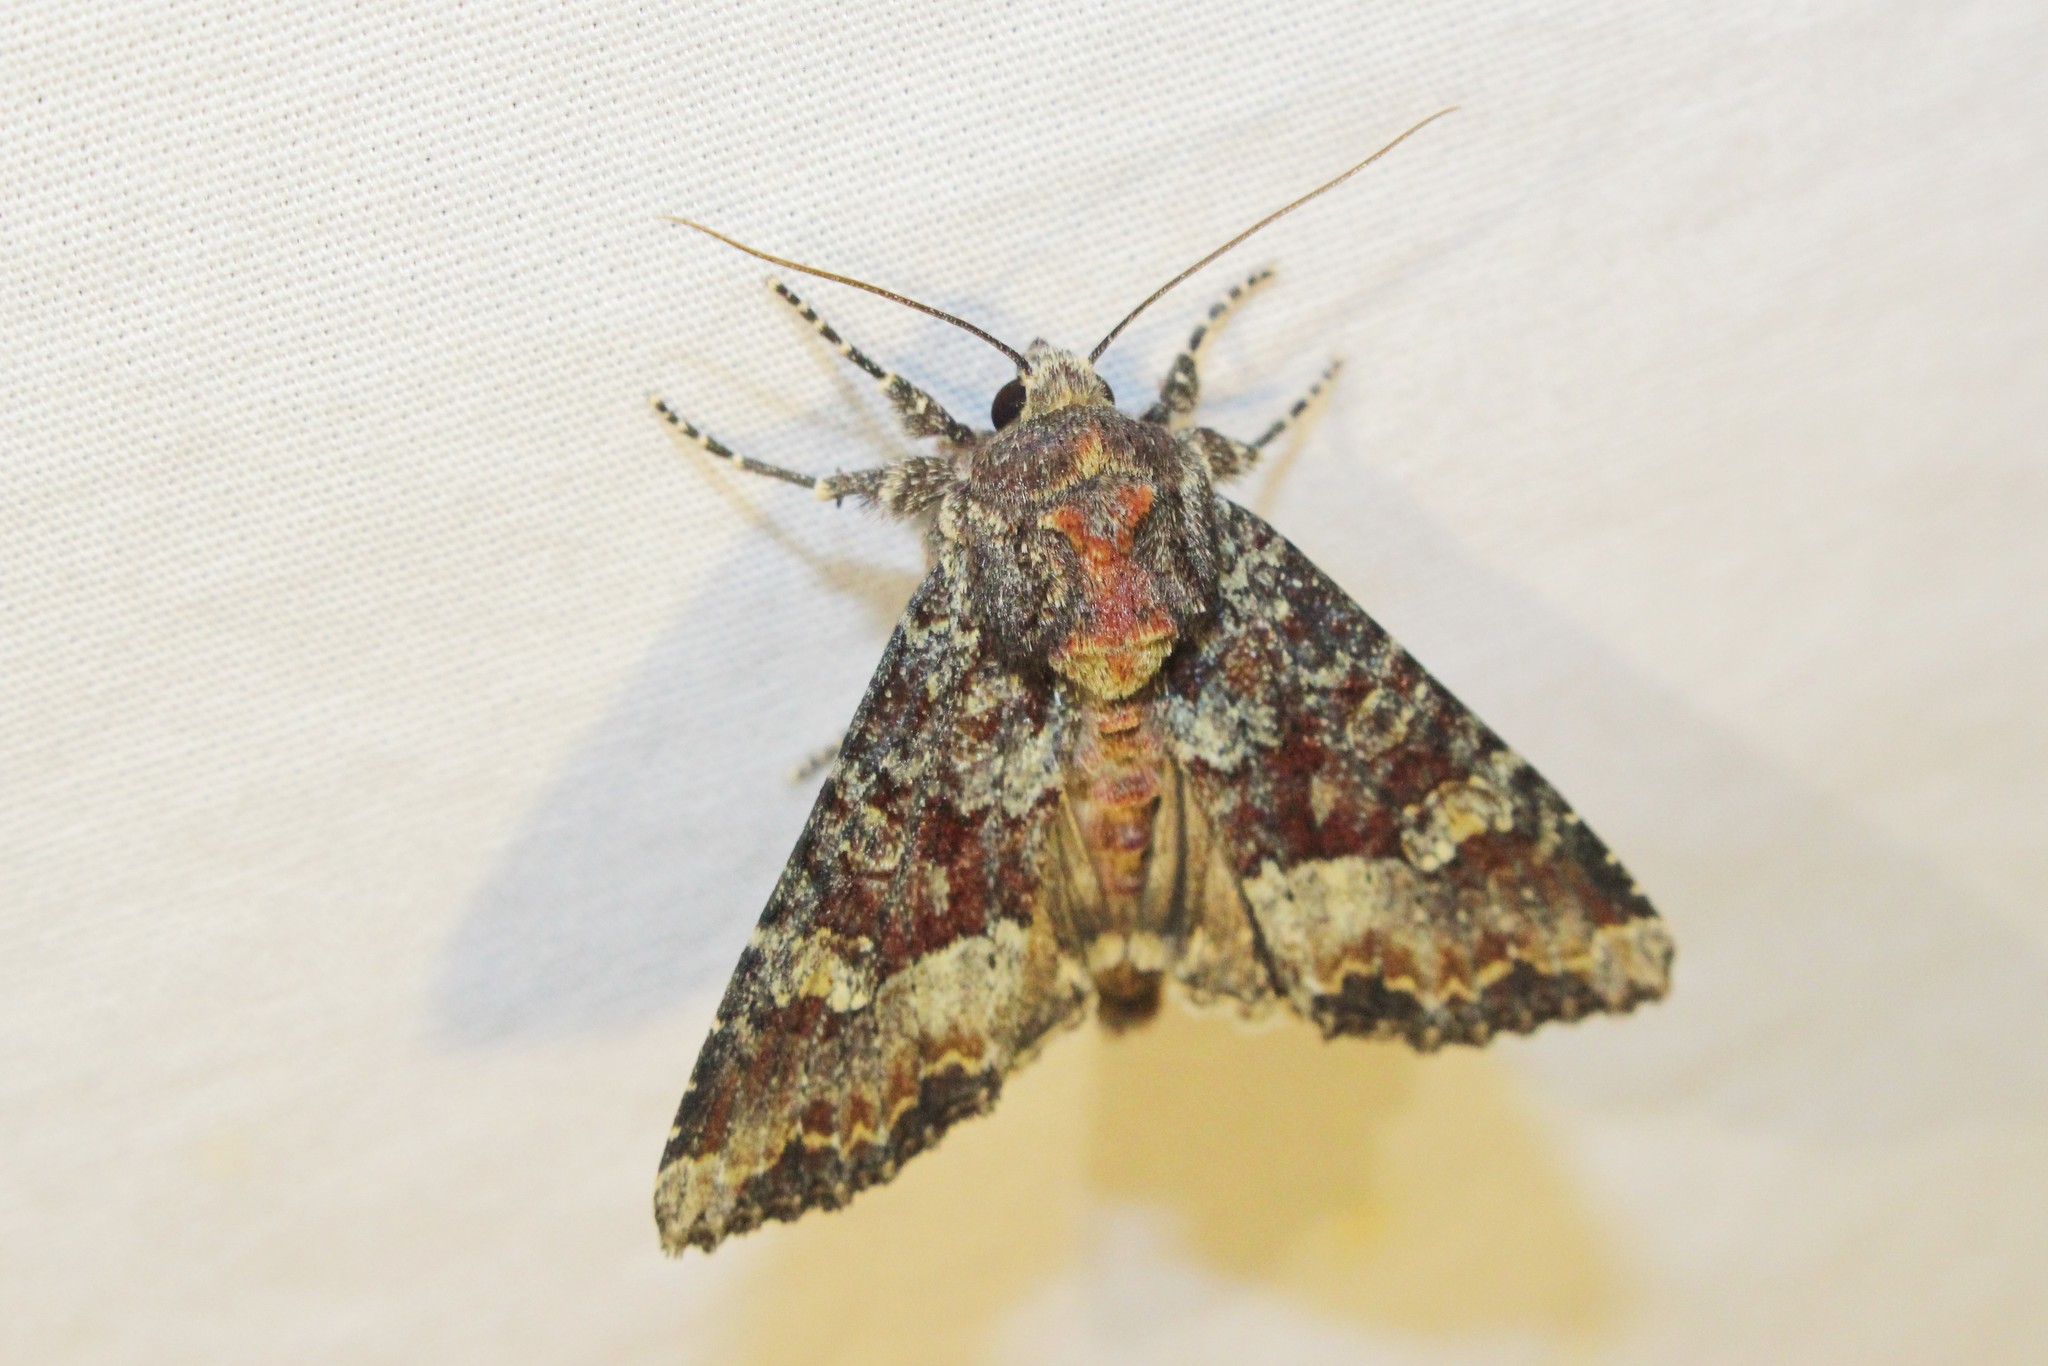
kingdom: Animalia
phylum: Arthropoda
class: Insecta
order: Lepidoptera
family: Noctuidae
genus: Apamea
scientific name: Apamea amputatrix
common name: Yellow-headed cutworm moth
